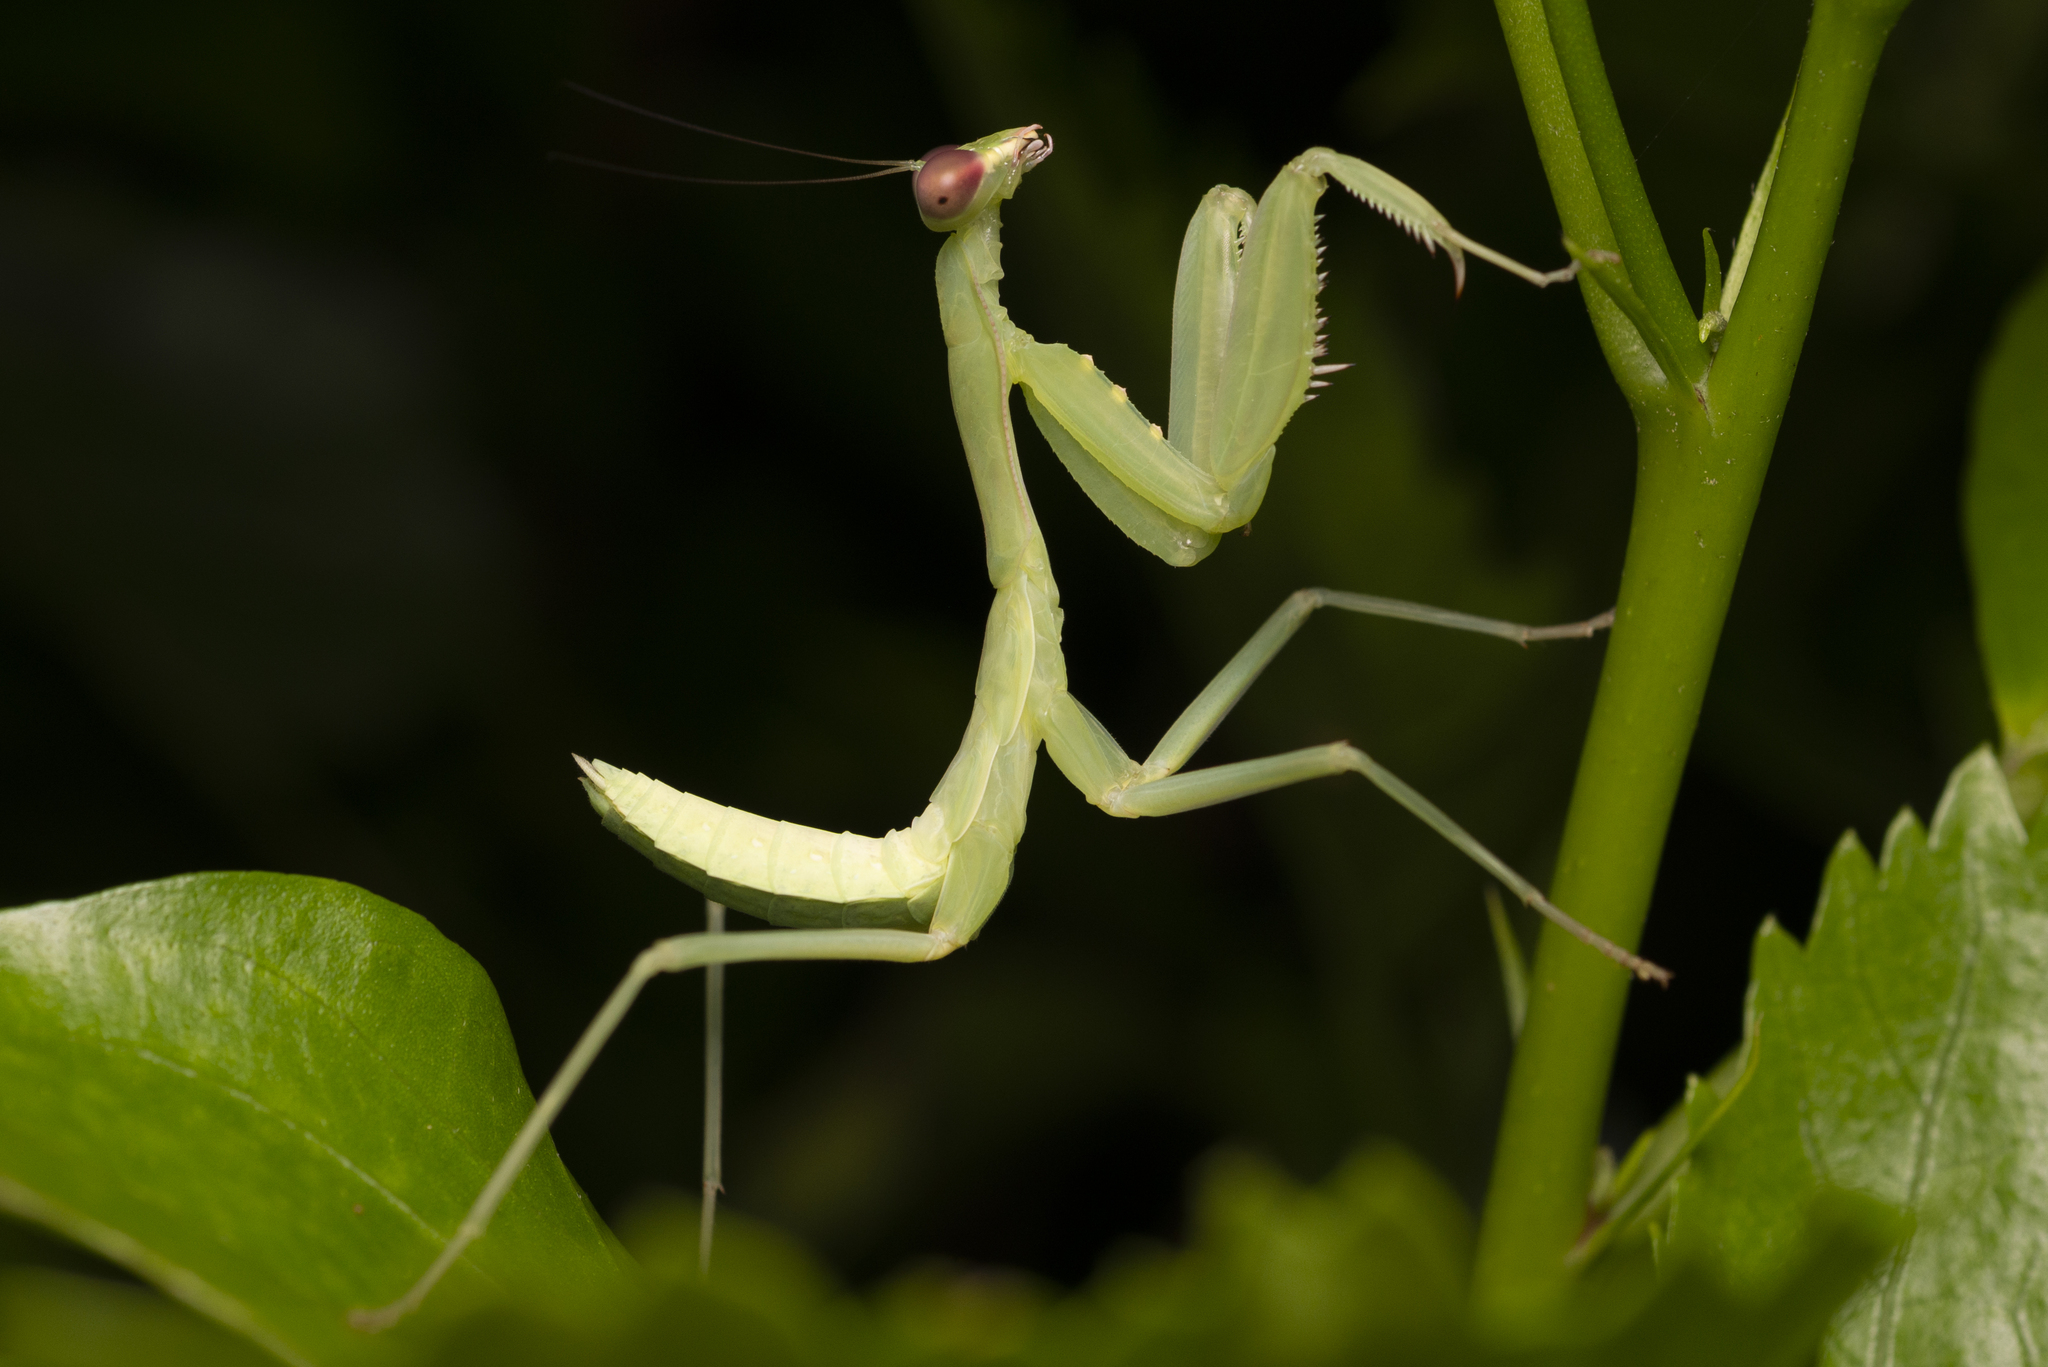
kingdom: Animalia
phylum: Arthropoda
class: Insecta
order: Mantodea
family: Mantidae
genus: Hierodula
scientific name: Hierodula patellifera
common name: Asian mantis
